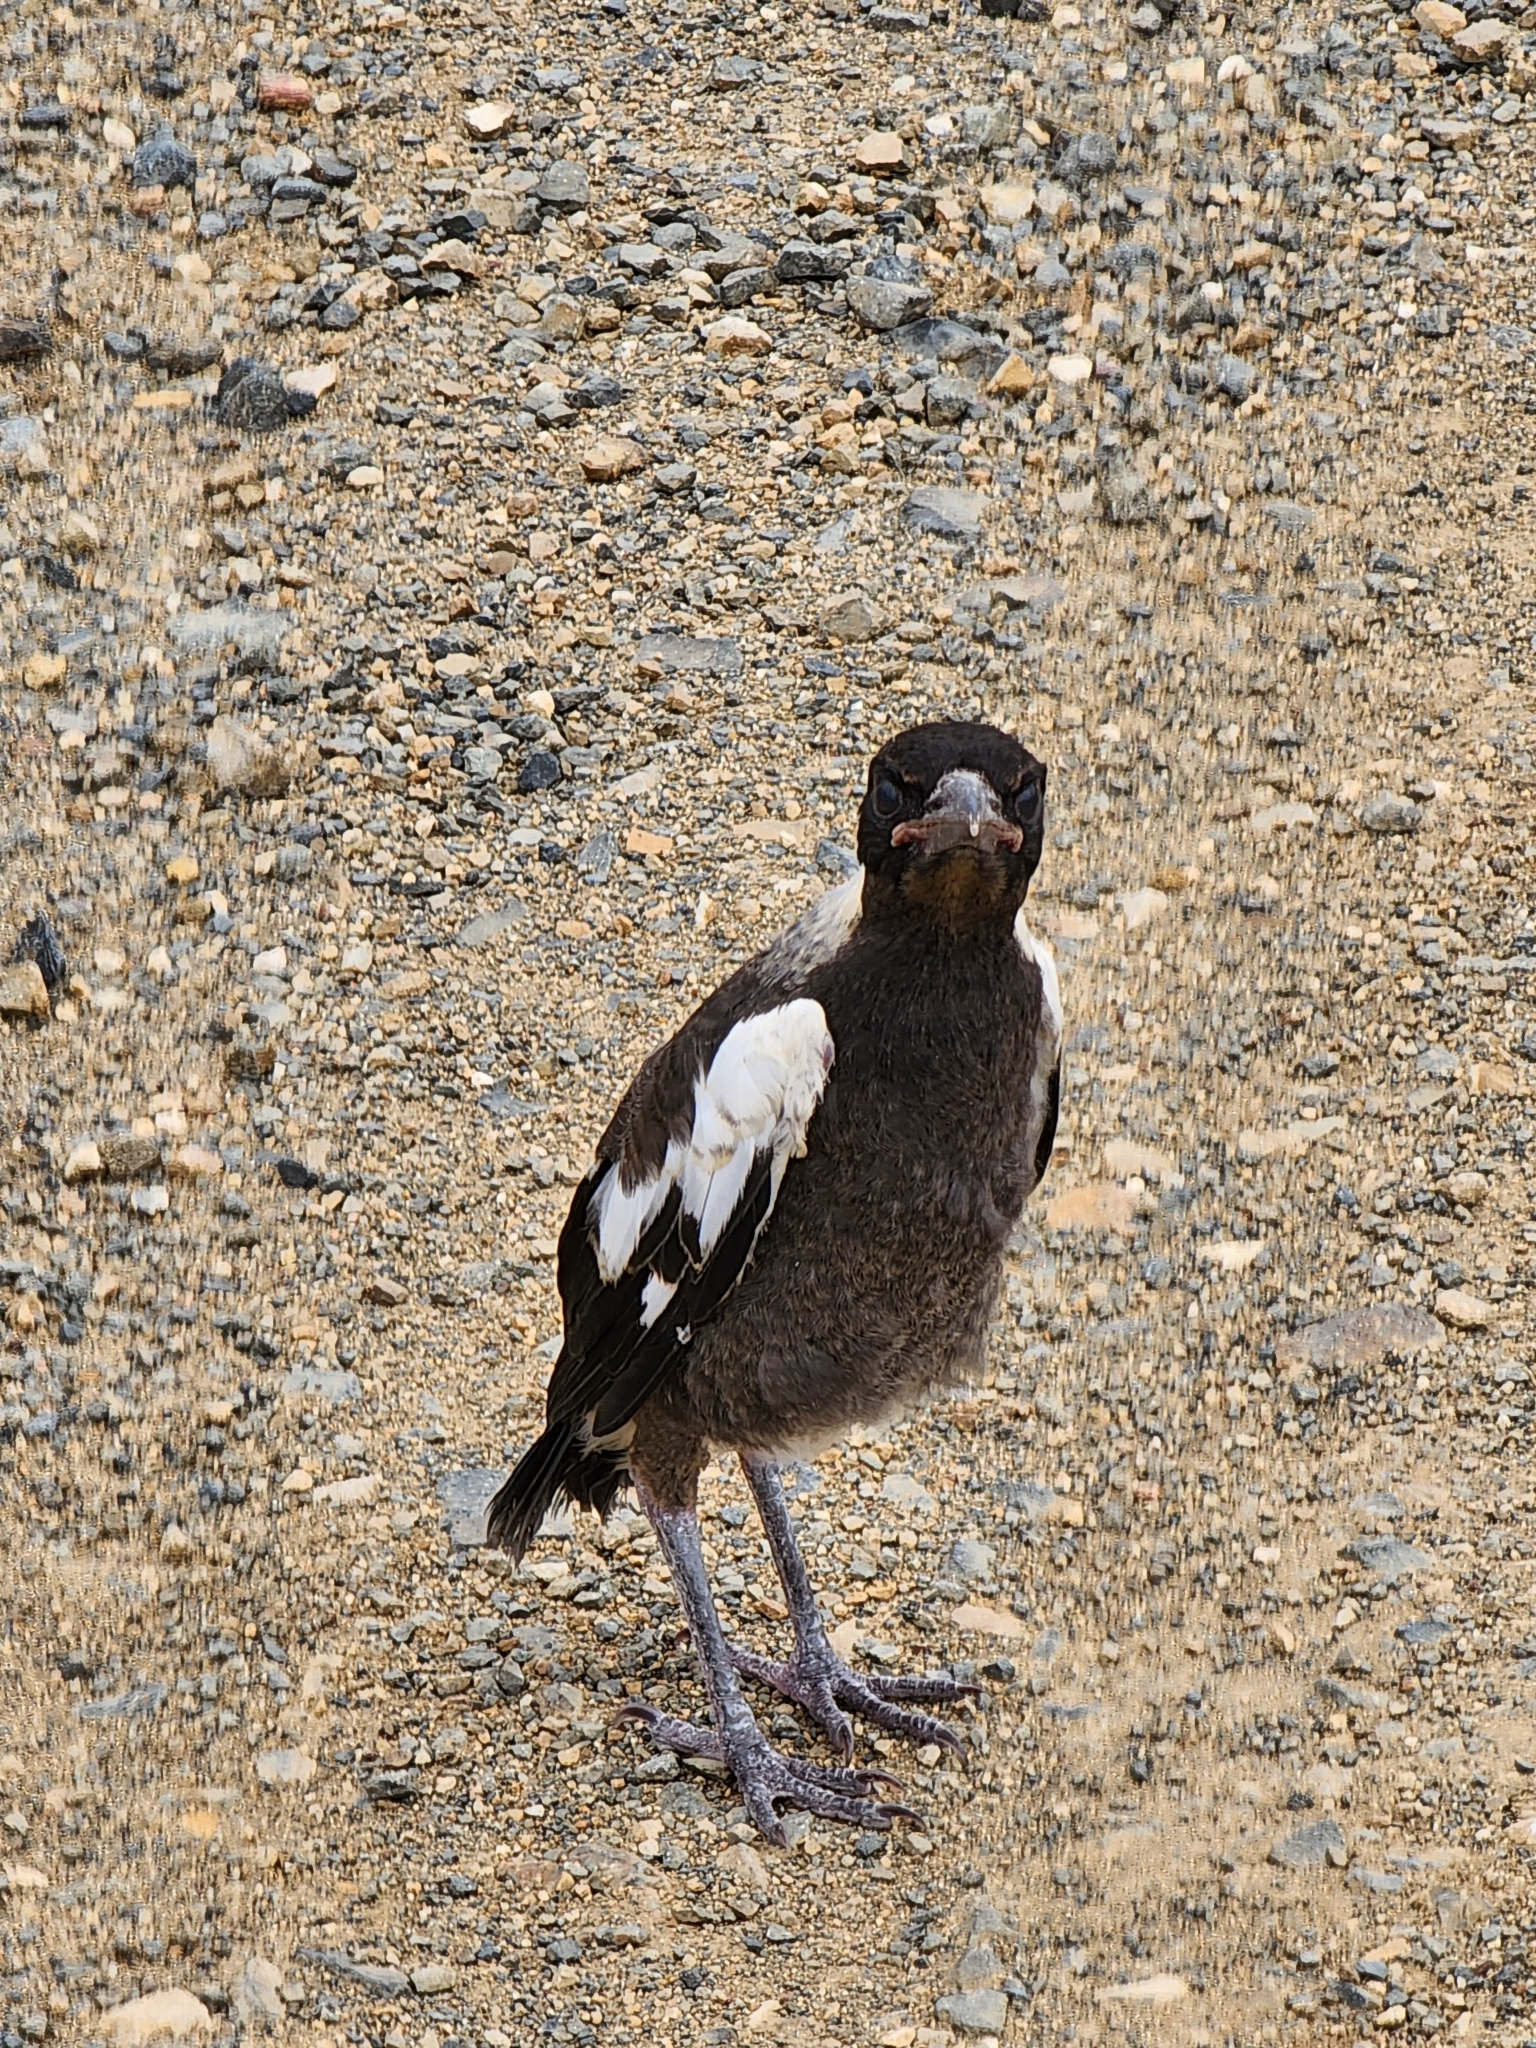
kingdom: Animalia
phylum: Chordata
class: Aves
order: Passeriformes
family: Cracticidae
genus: Gymnorhina
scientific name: Gymnorhina tibicen
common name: Australian magpie
